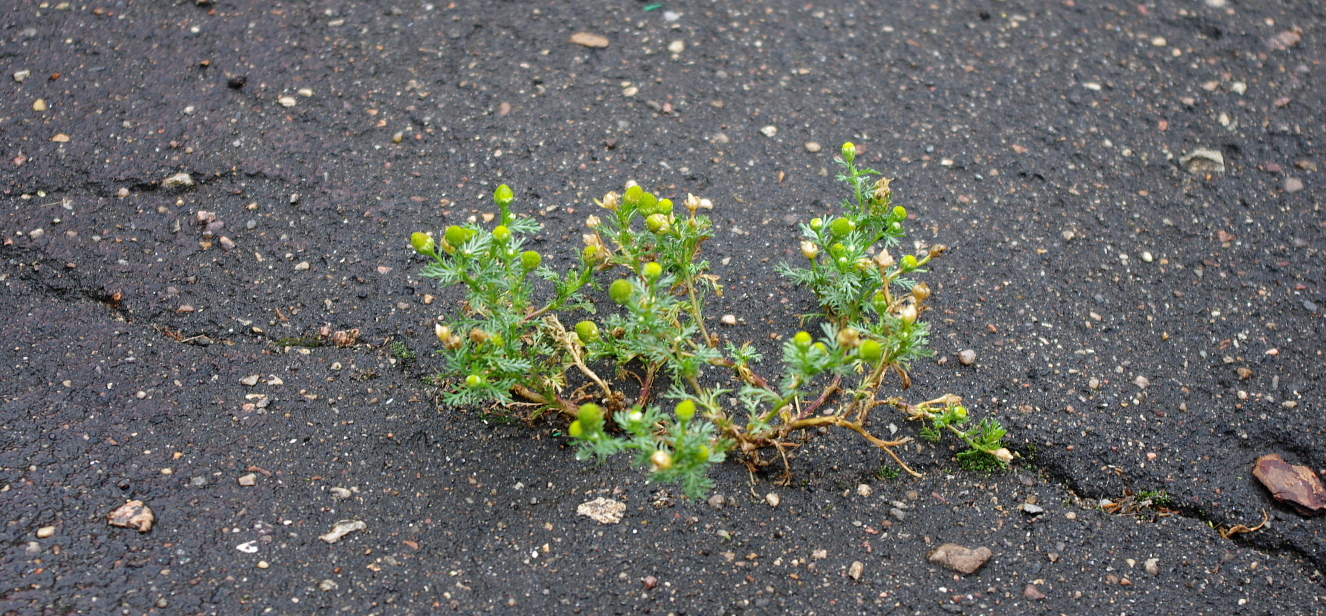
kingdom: Plantae
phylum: Tracheophyta
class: Magnoliopsida
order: Asterales
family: Asteraceae
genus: Matricaria
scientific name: Matricaria discoidea
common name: Disc mayweed
